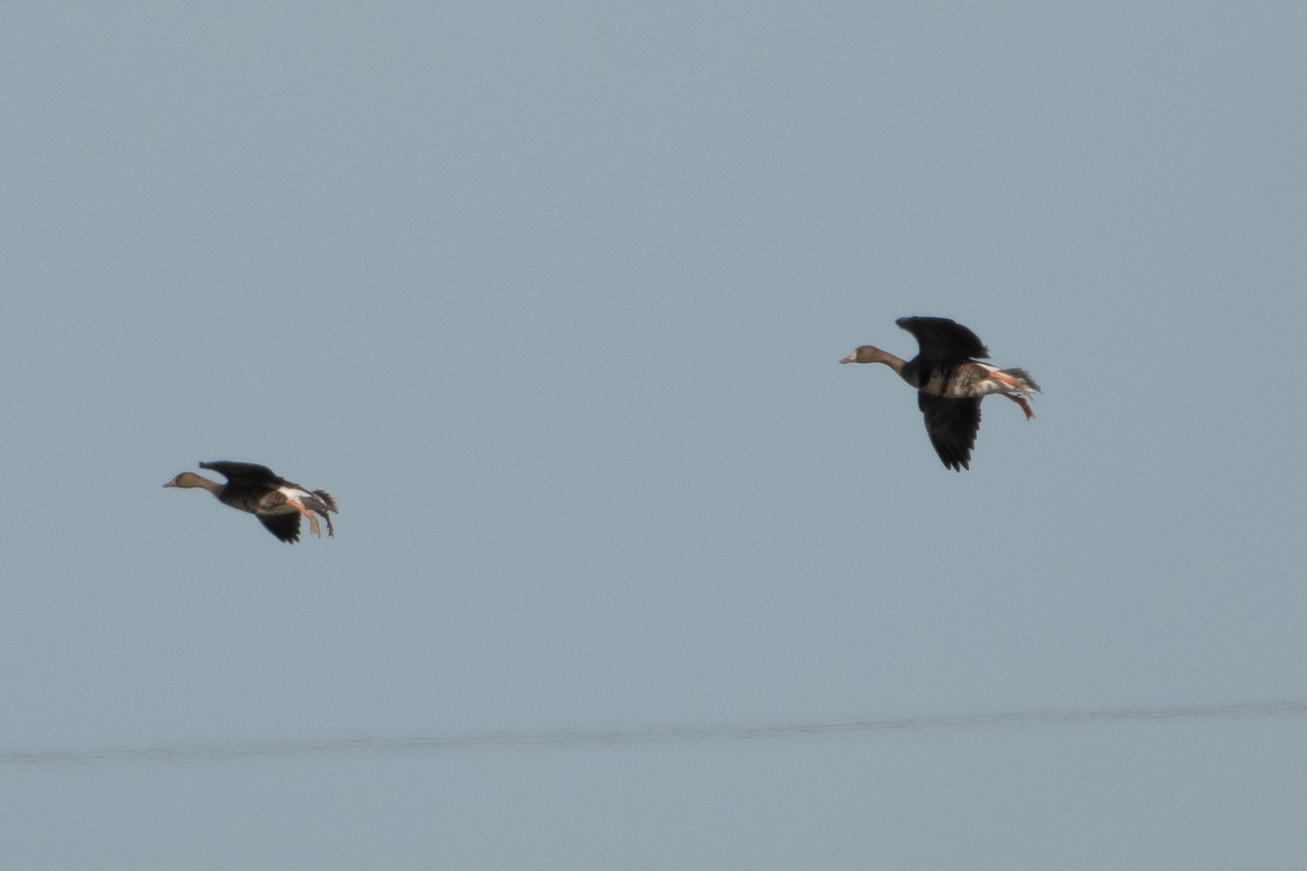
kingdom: Animalia
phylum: Chordata
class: Aves
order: Anseriformes
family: Anatidae
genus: Anser
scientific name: Anser albifrons
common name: Greater white-fronted goose
